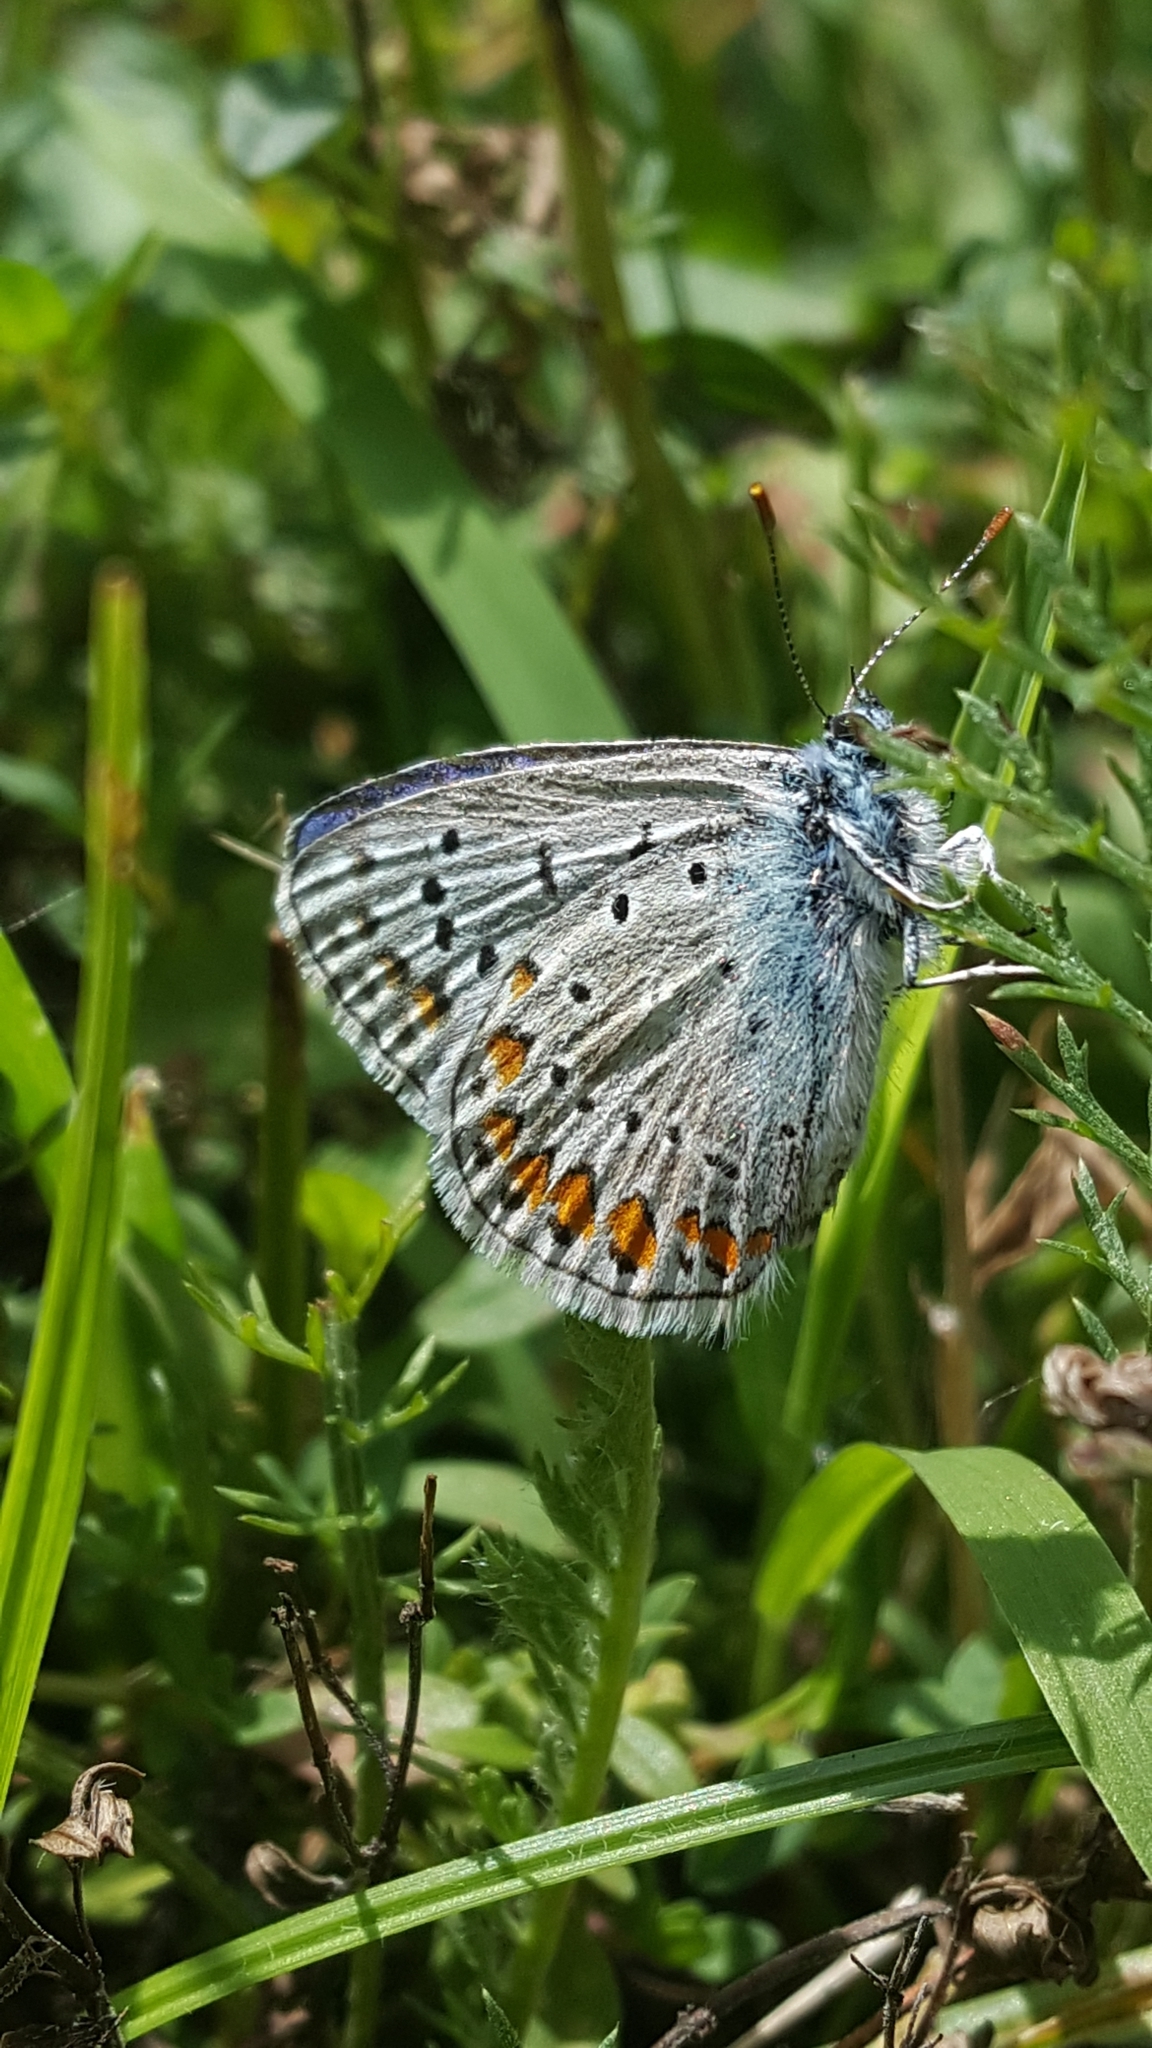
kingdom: Animalia
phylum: Arthropoda
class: Insecta
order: Lepidoptera
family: Lycaenidae
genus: Polyommatus
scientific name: Polyommatus icarus
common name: Common blue
